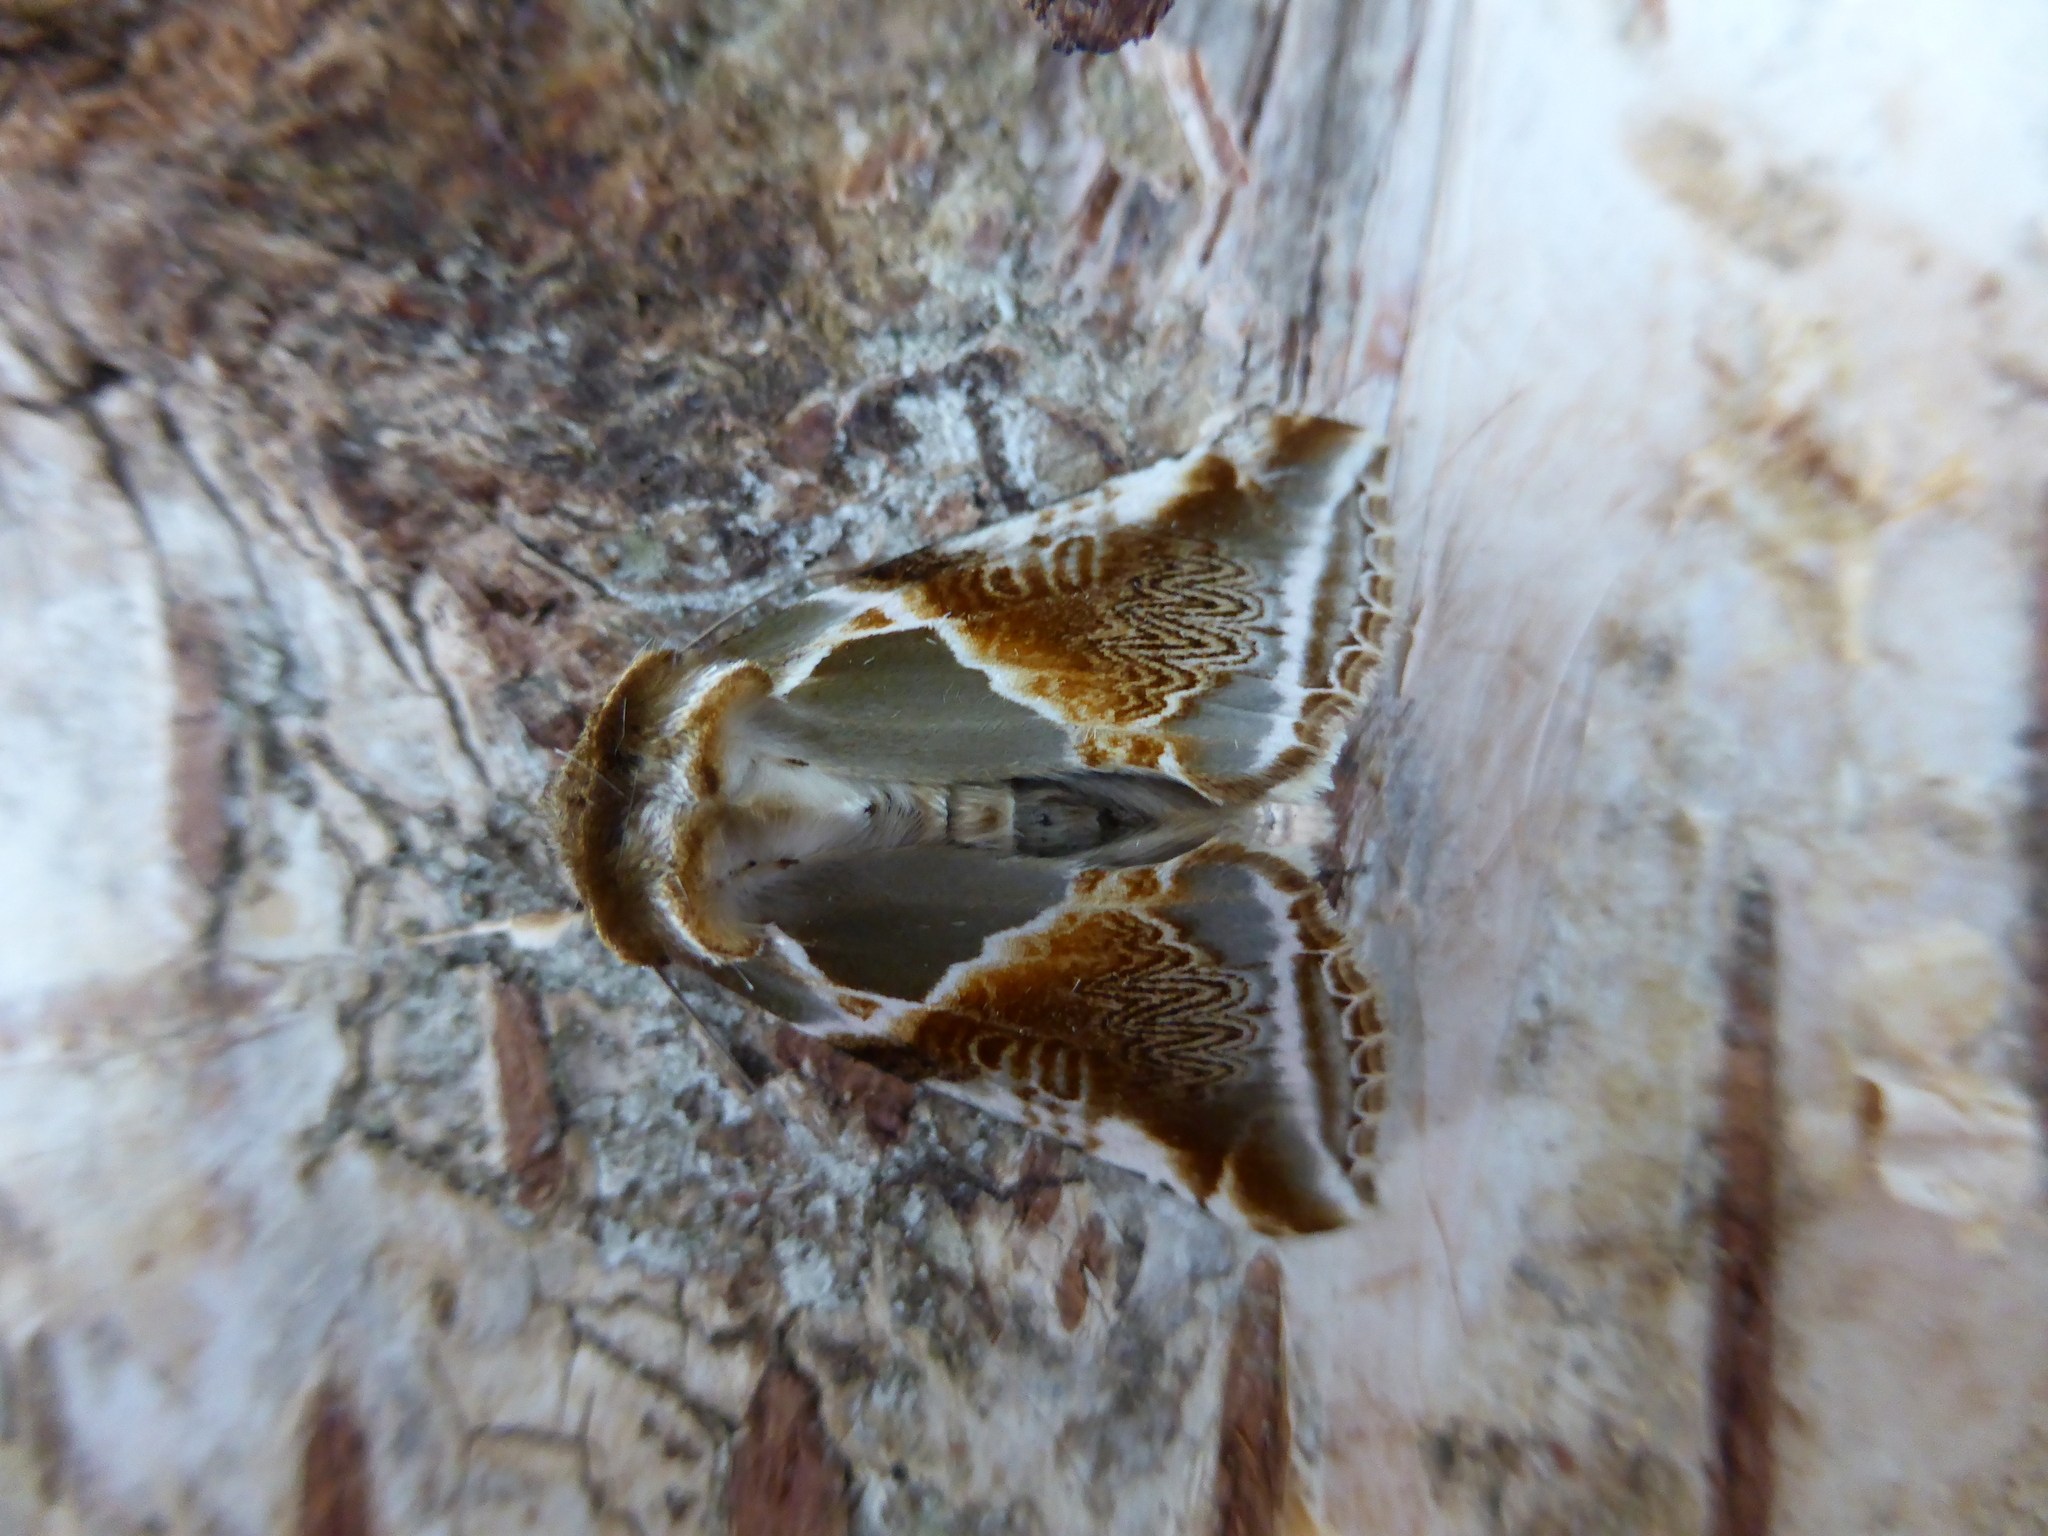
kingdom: Animalia
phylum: Arthropoda
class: Insecta
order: Lepidoptera
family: Drepanidae
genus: Habrosyne
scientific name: Habrosyne pyritoides
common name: Buff arches
